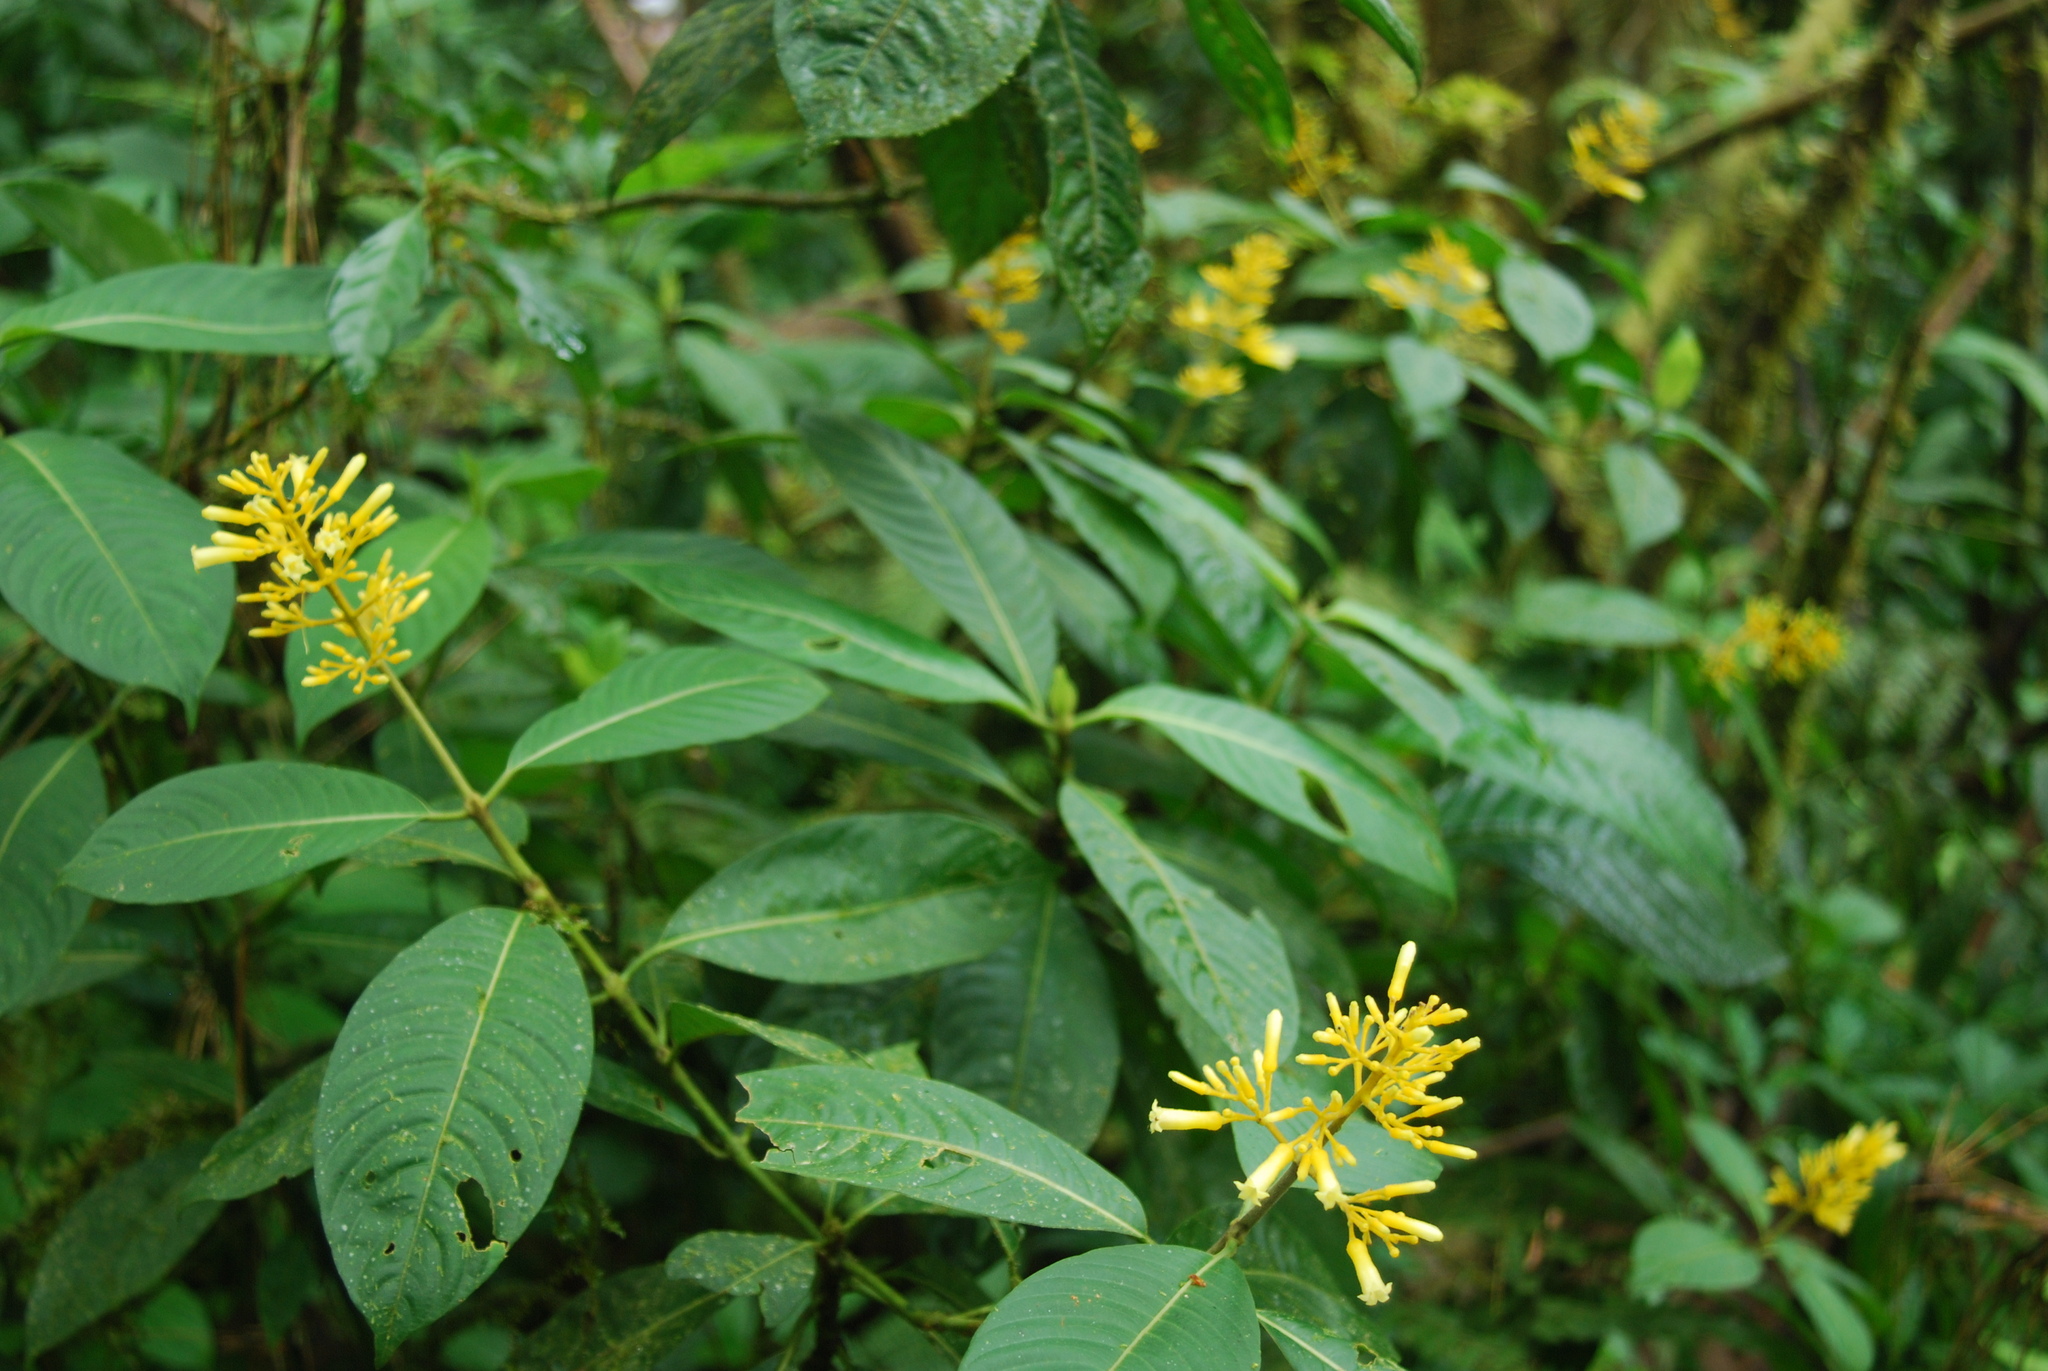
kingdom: Plantae
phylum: Tracheophyta
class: Magnoliopsida
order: Gentianales
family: Rubiaceae
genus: Palicourea
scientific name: Palicourea lasiorrhachis
